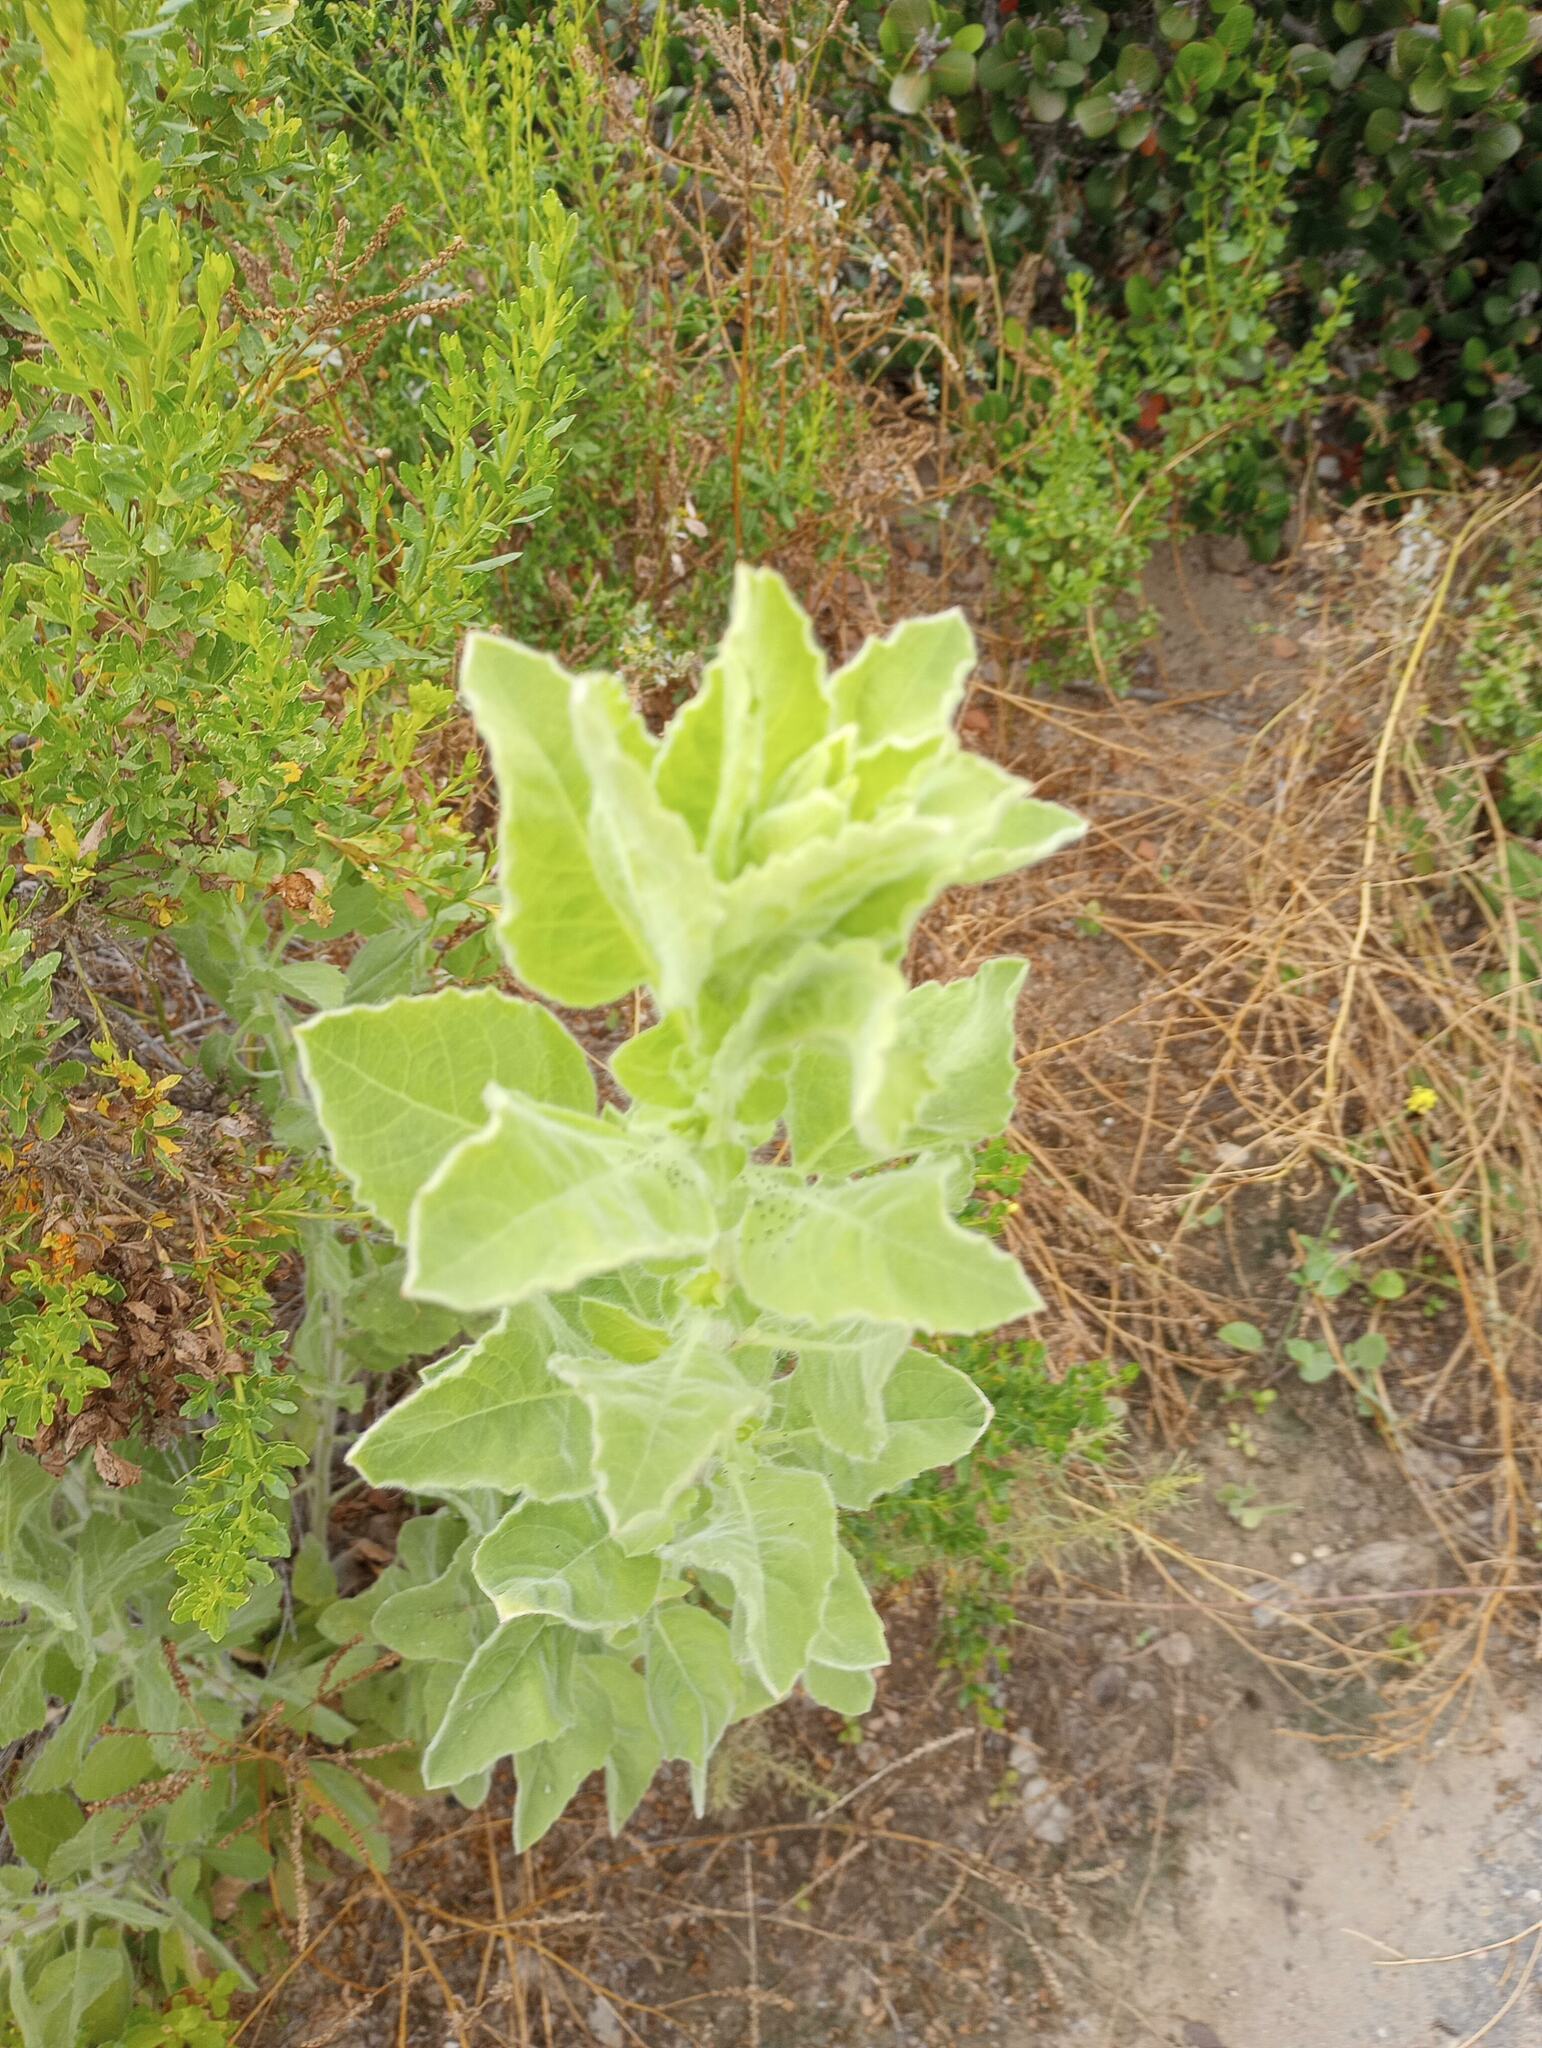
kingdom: Plantae
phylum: Tracheophyta
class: Magnoliopsida
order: Asterales
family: Asteraceae
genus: Heterotheca
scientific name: Heterotheca grandiflora
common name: Telegraphweed
